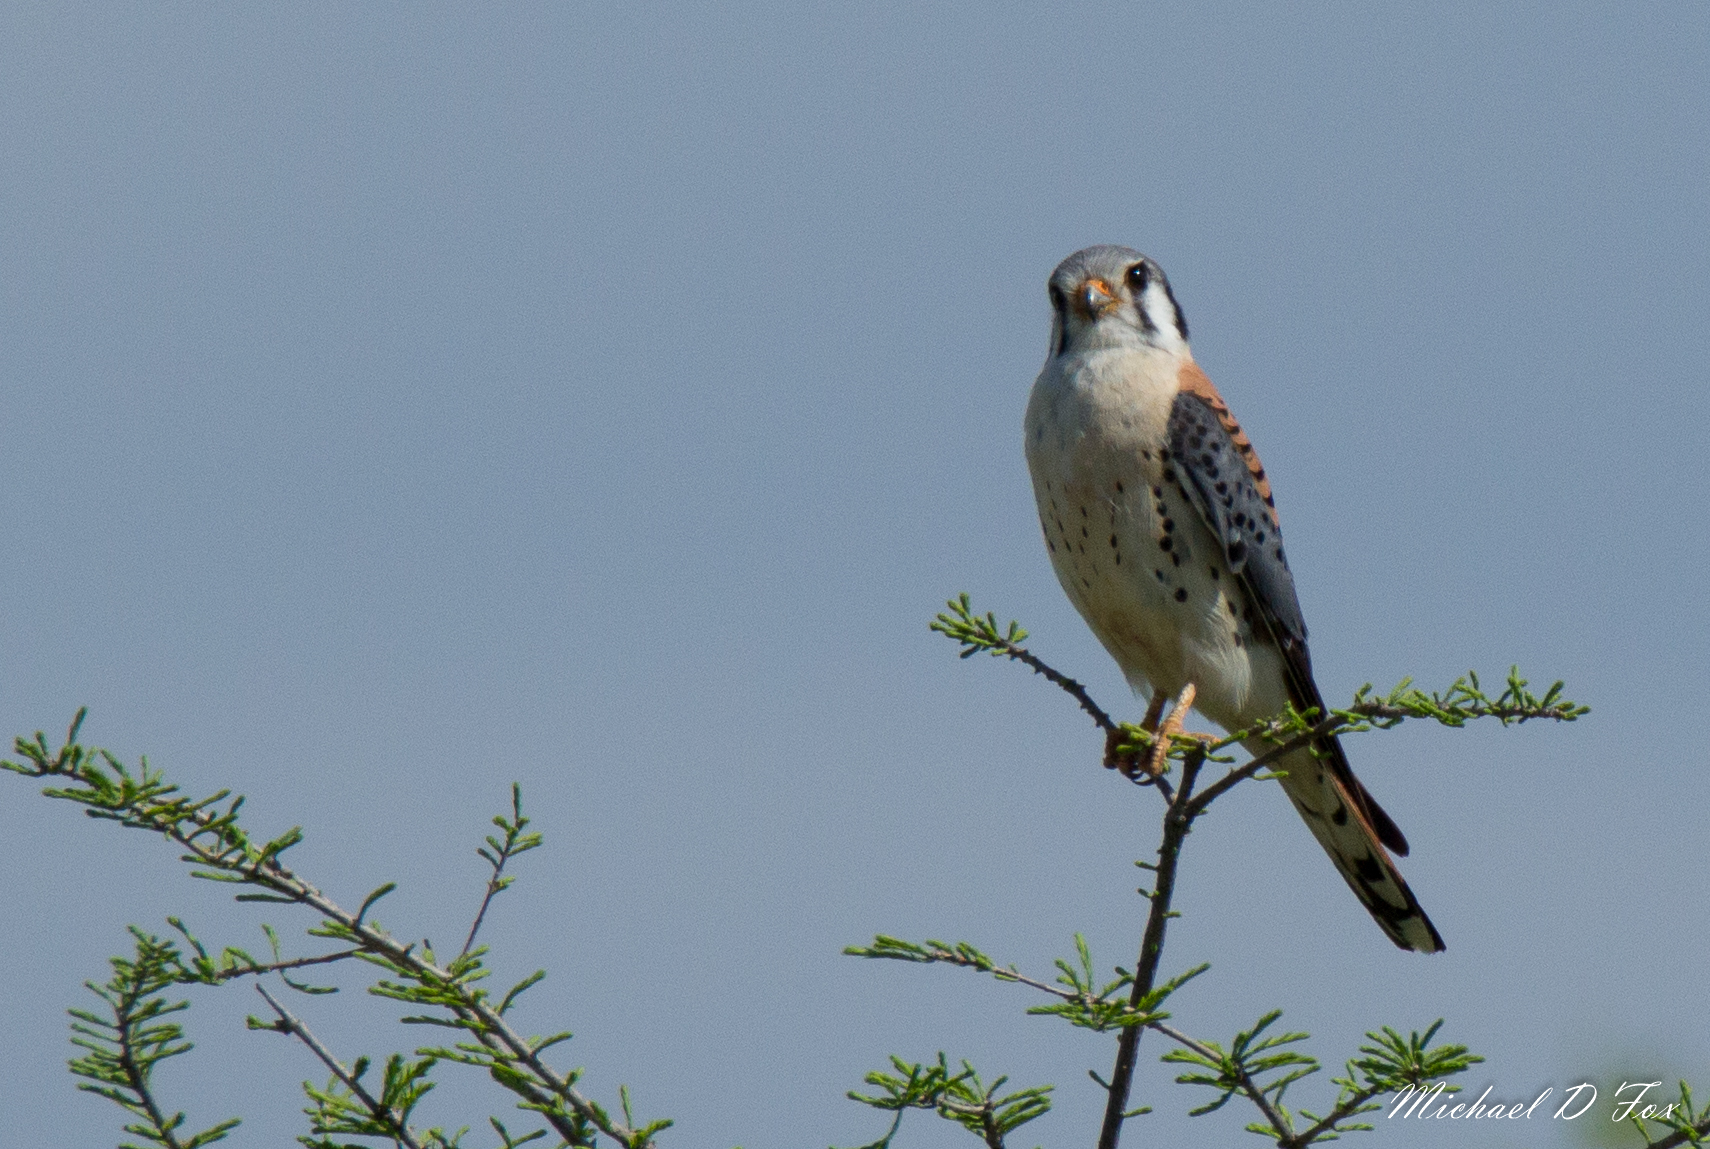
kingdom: Animalia
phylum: Chordata
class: Aves
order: Falconiformes
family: Falconidae
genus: Falco
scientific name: Falco sparverius
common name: American kestrel
